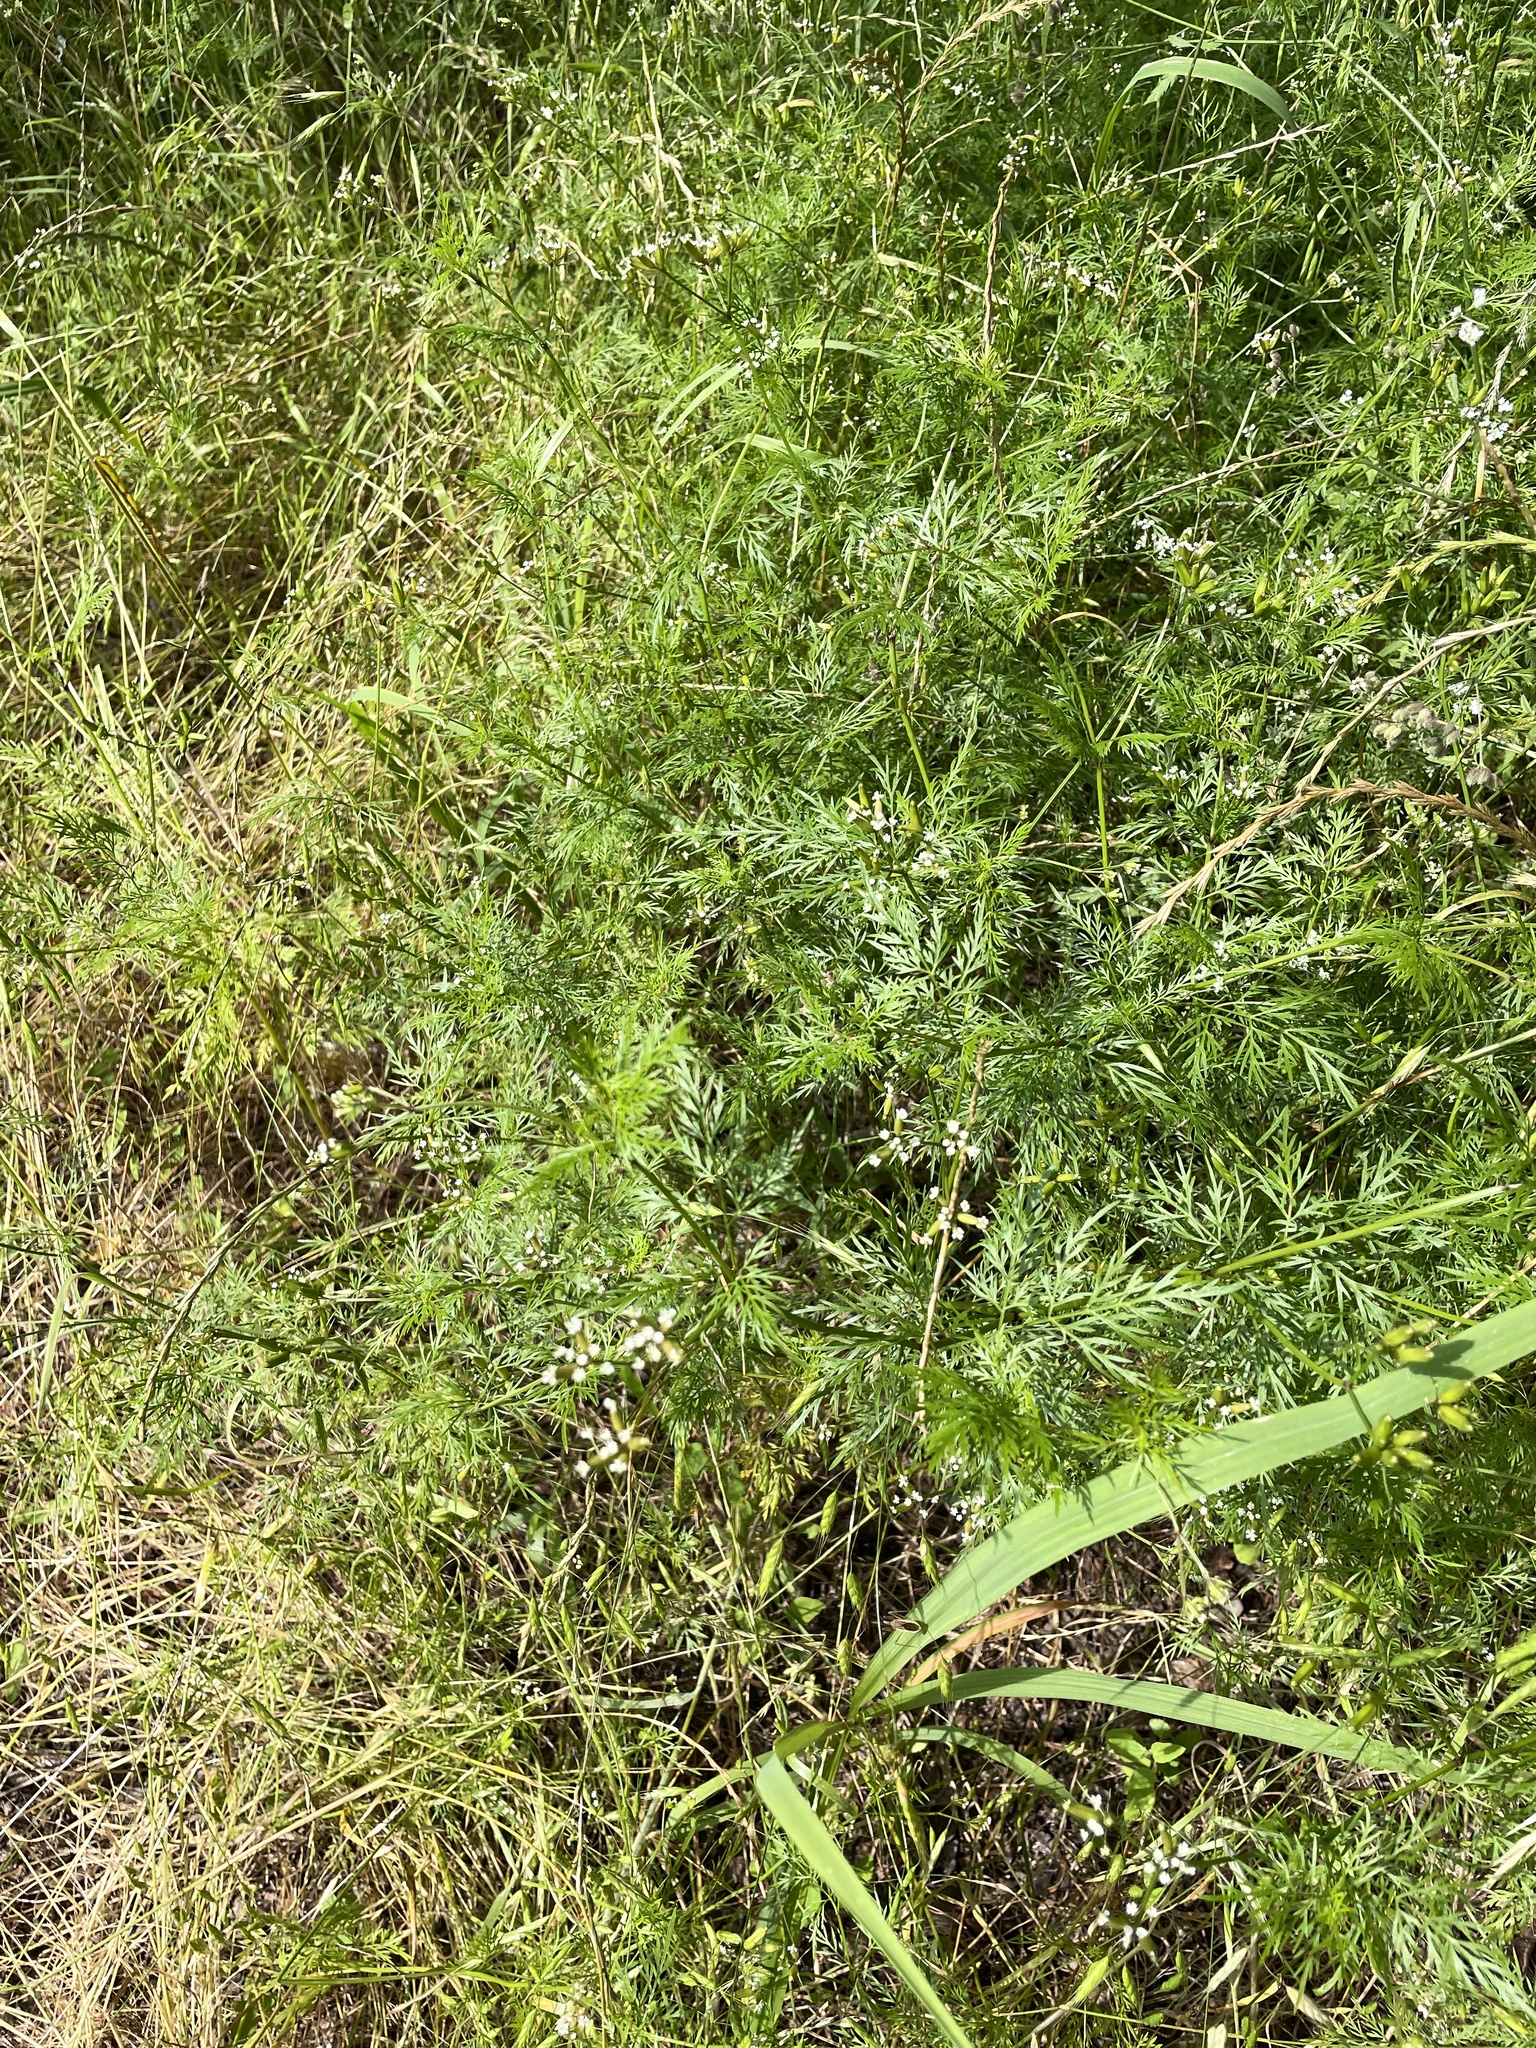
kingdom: Plantae
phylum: Tracheophyta
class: Magnoliopsida
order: Apiales
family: Apiaceae
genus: Trepocarpus
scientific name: Trepocarpus aethusae
